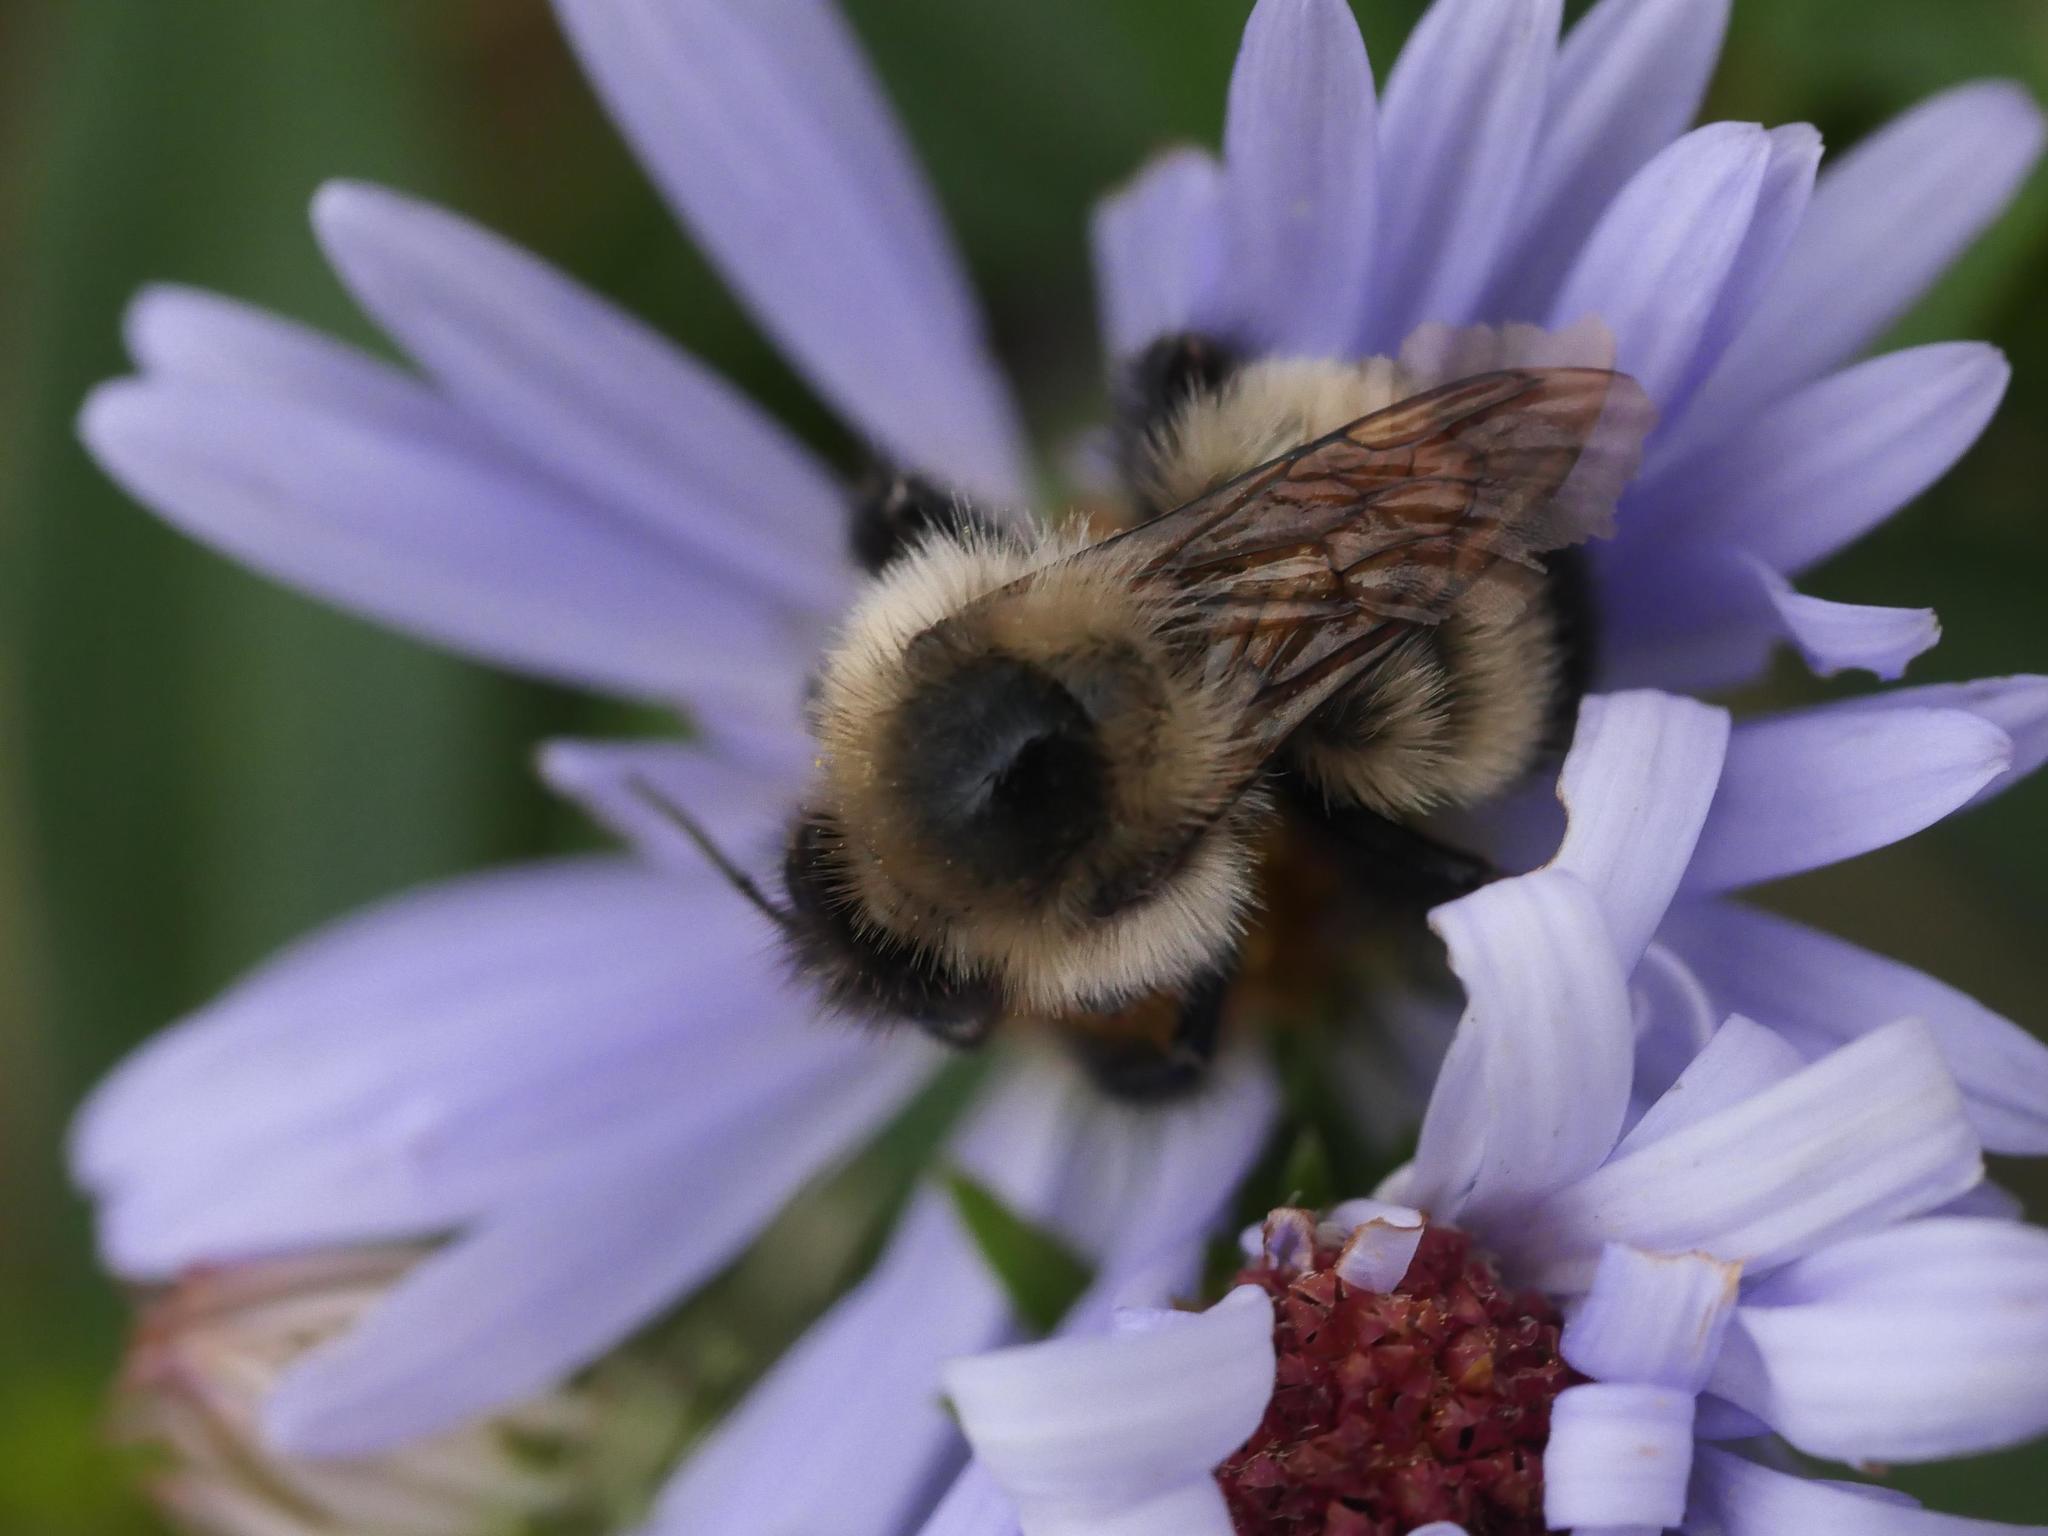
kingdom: Animalia
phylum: Arthropoda
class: Insecta
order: Hymenoptera
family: Apidae
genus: Pyrobombus
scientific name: Pyrobombus
